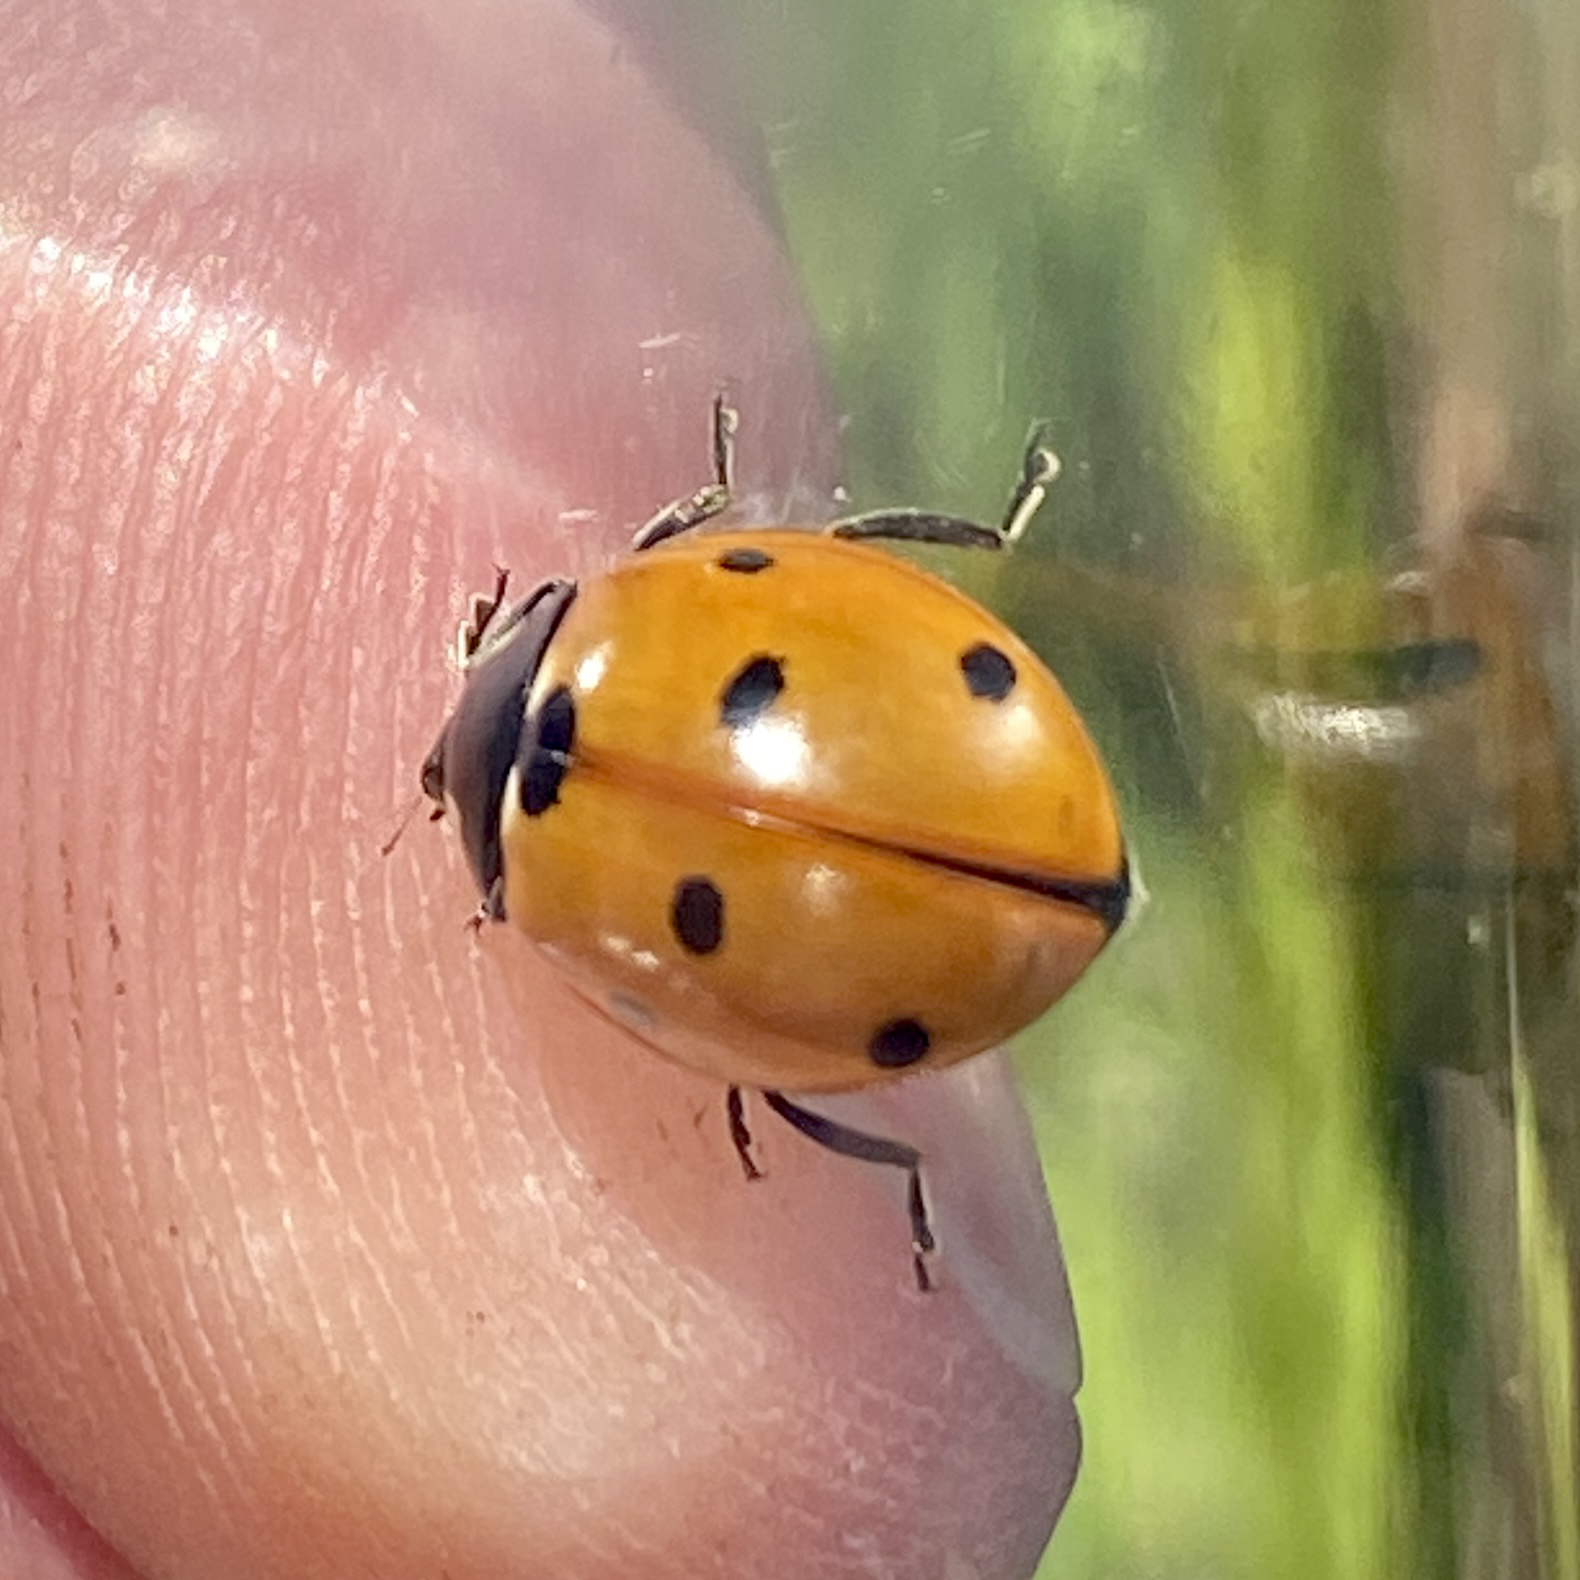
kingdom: Animalia
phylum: Arthropoda
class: Insecta
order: Coleoptera
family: Coccinellidae
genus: Coccinella
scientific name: Coccinella septempunctata
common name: Sevenspotted lady beetle
